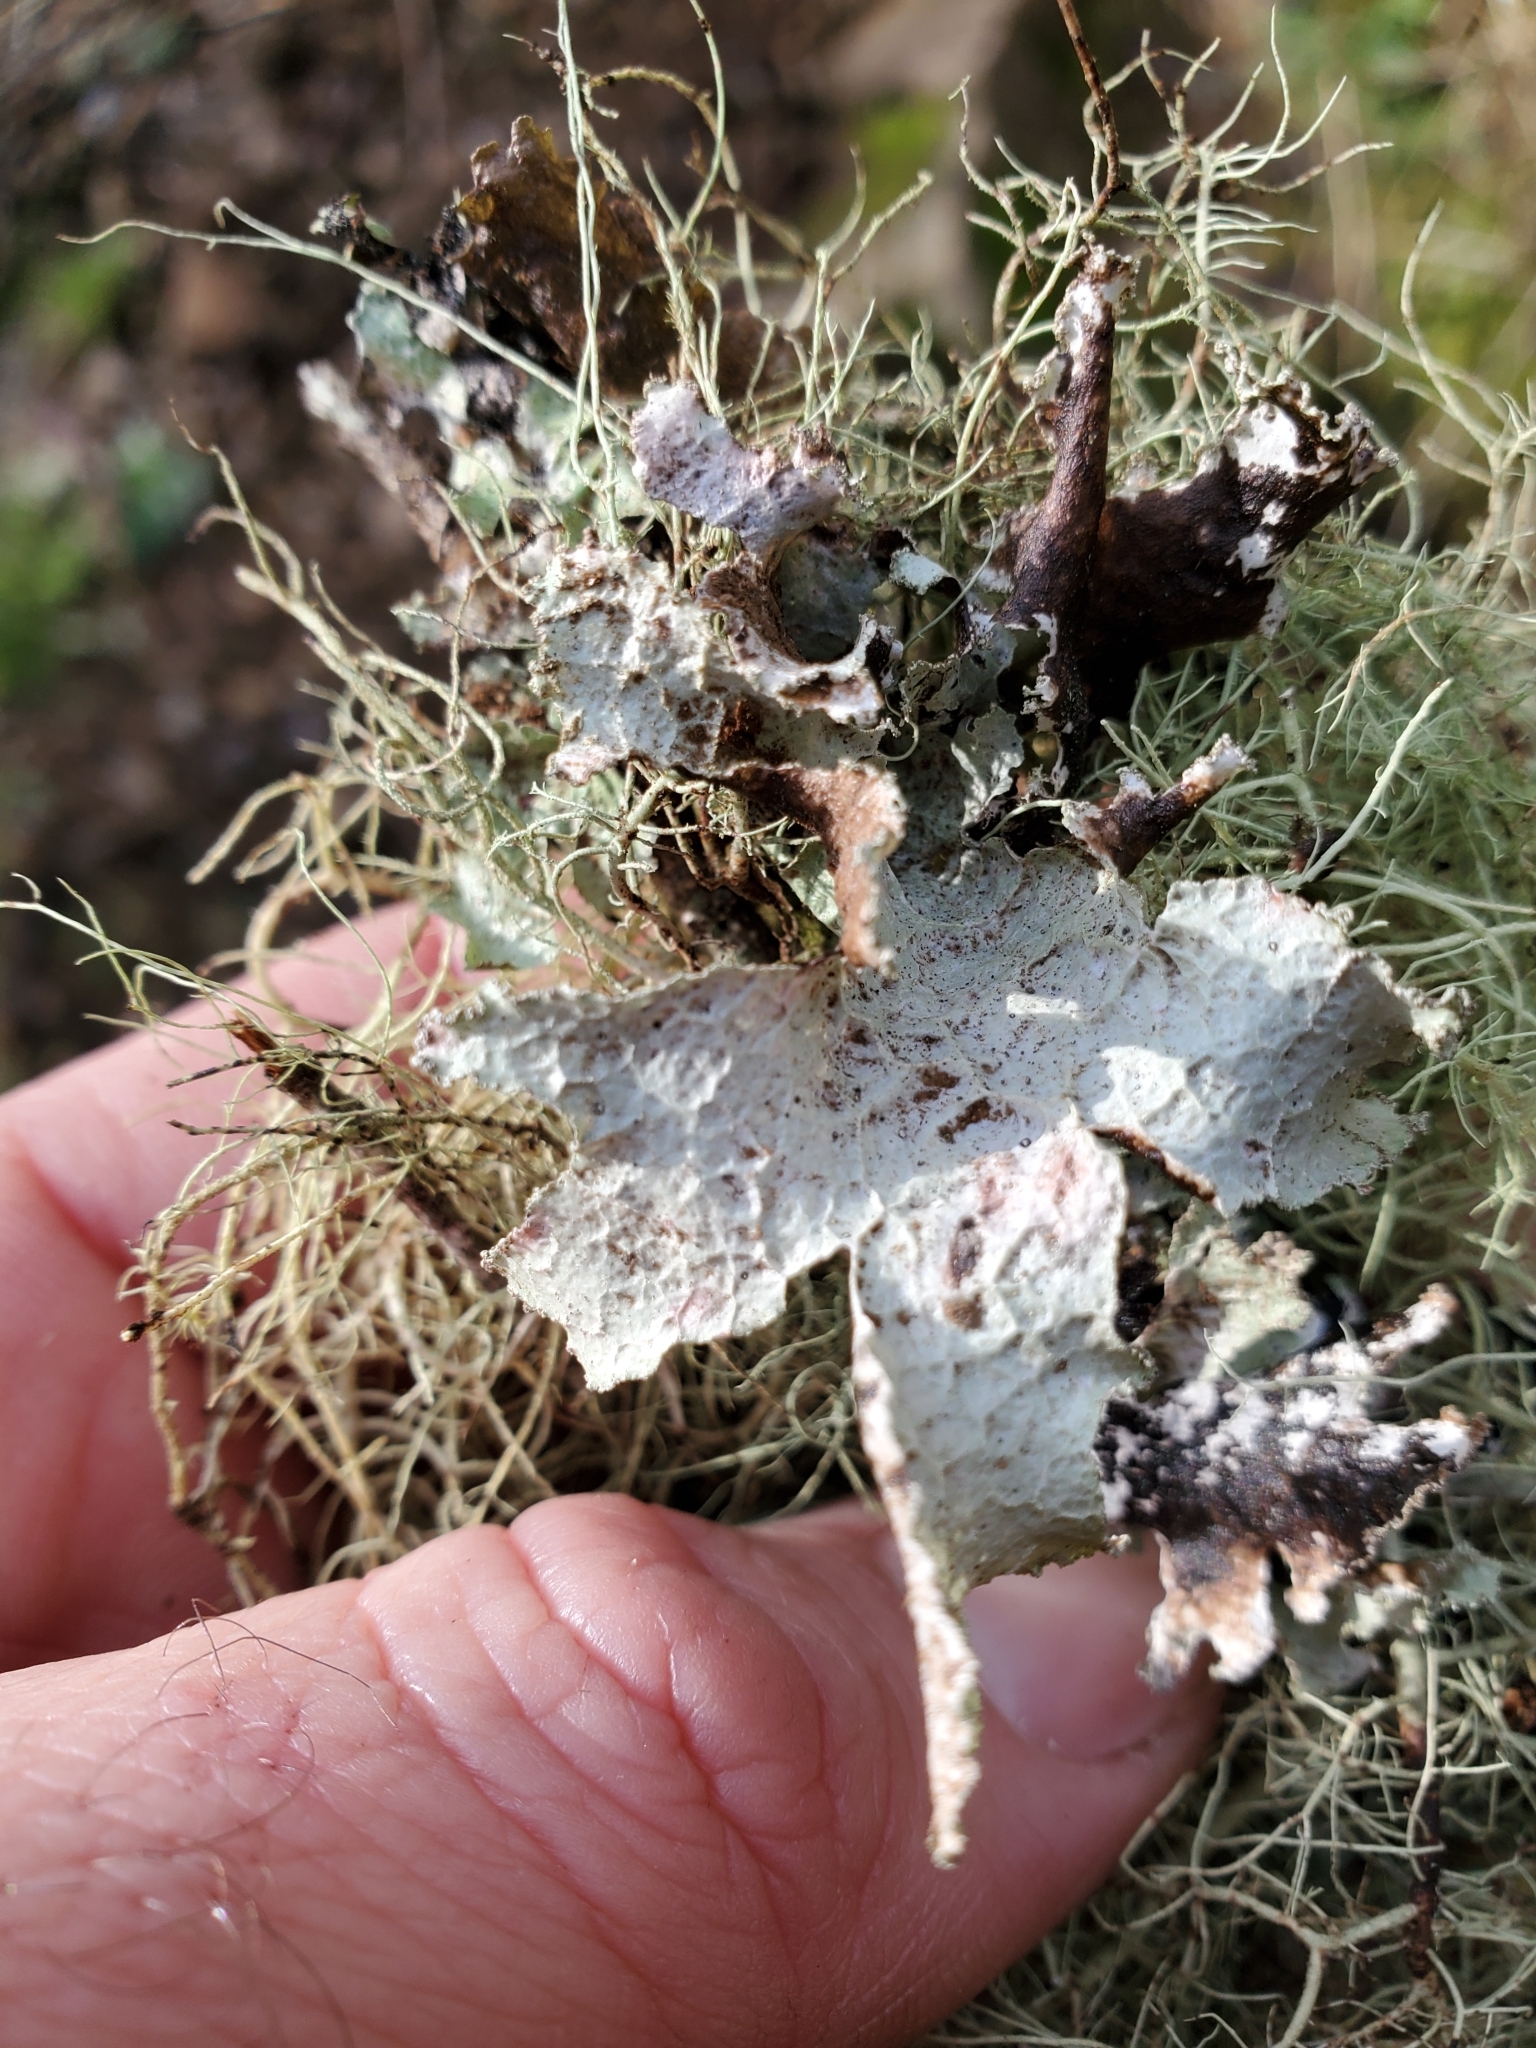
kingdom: Fungi
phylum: Ascomycota
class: Lecanoromycetes
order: Lecanorales
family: Parmeliaceae
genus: Platismatia
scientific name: Platismatia glauca
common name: Varied rag lichen
